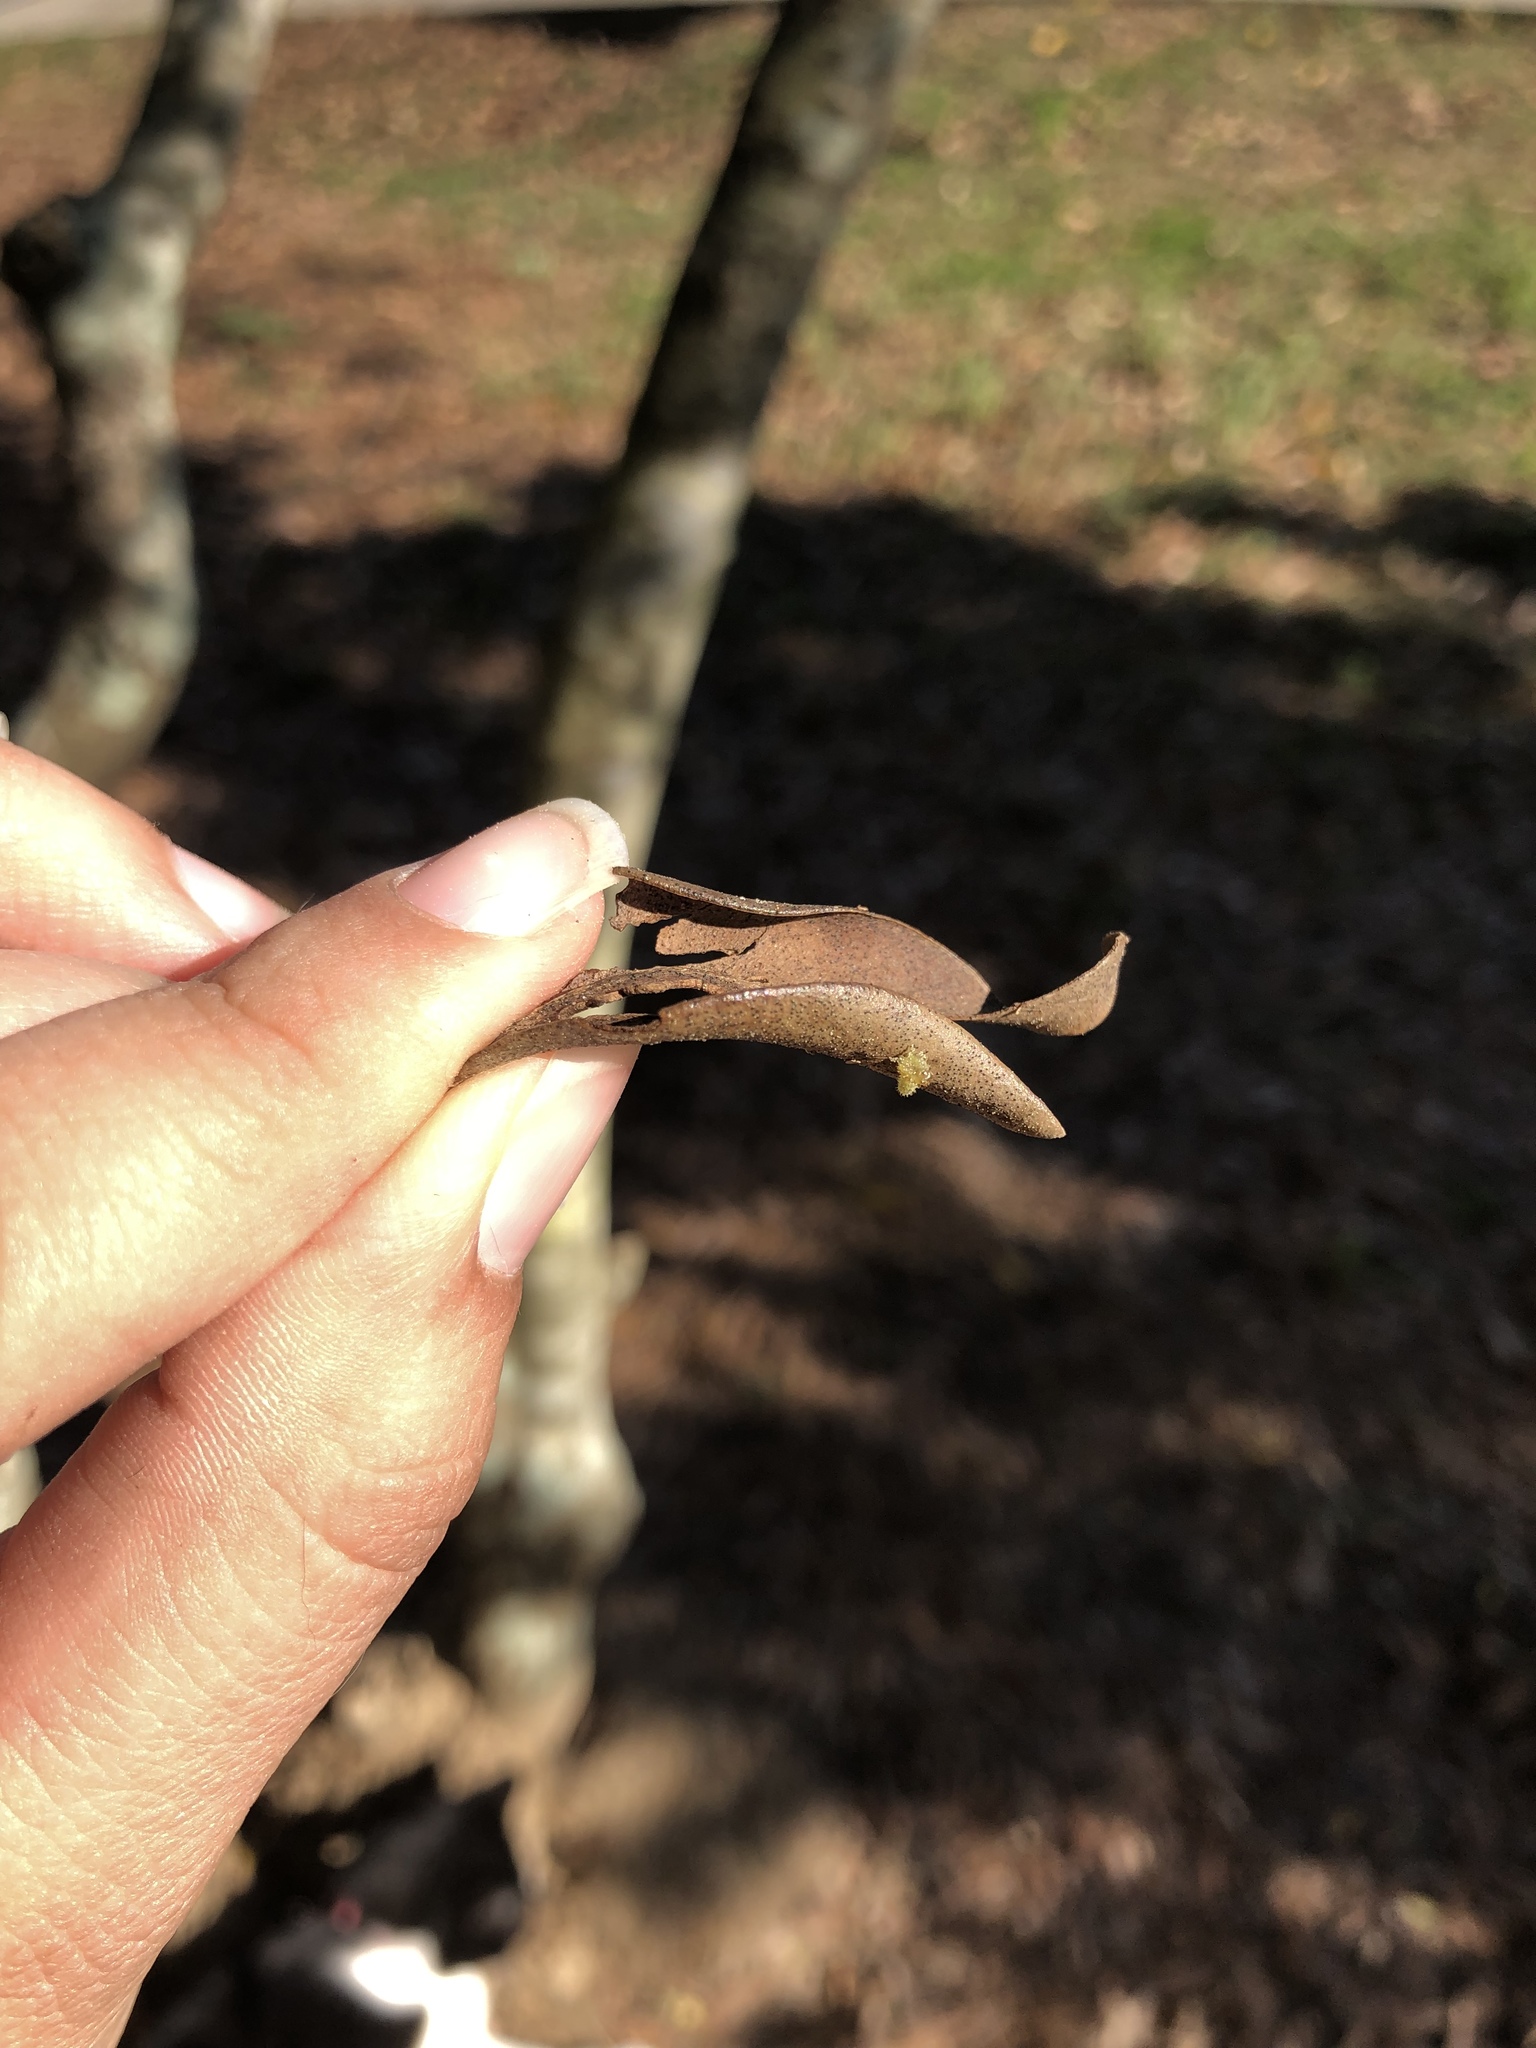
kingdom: Animalia
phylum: Arthropoda
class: Insecta
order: Lepidoptera
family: Pieridae
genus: Pieris
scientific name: Pieris rapae
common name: Small white
